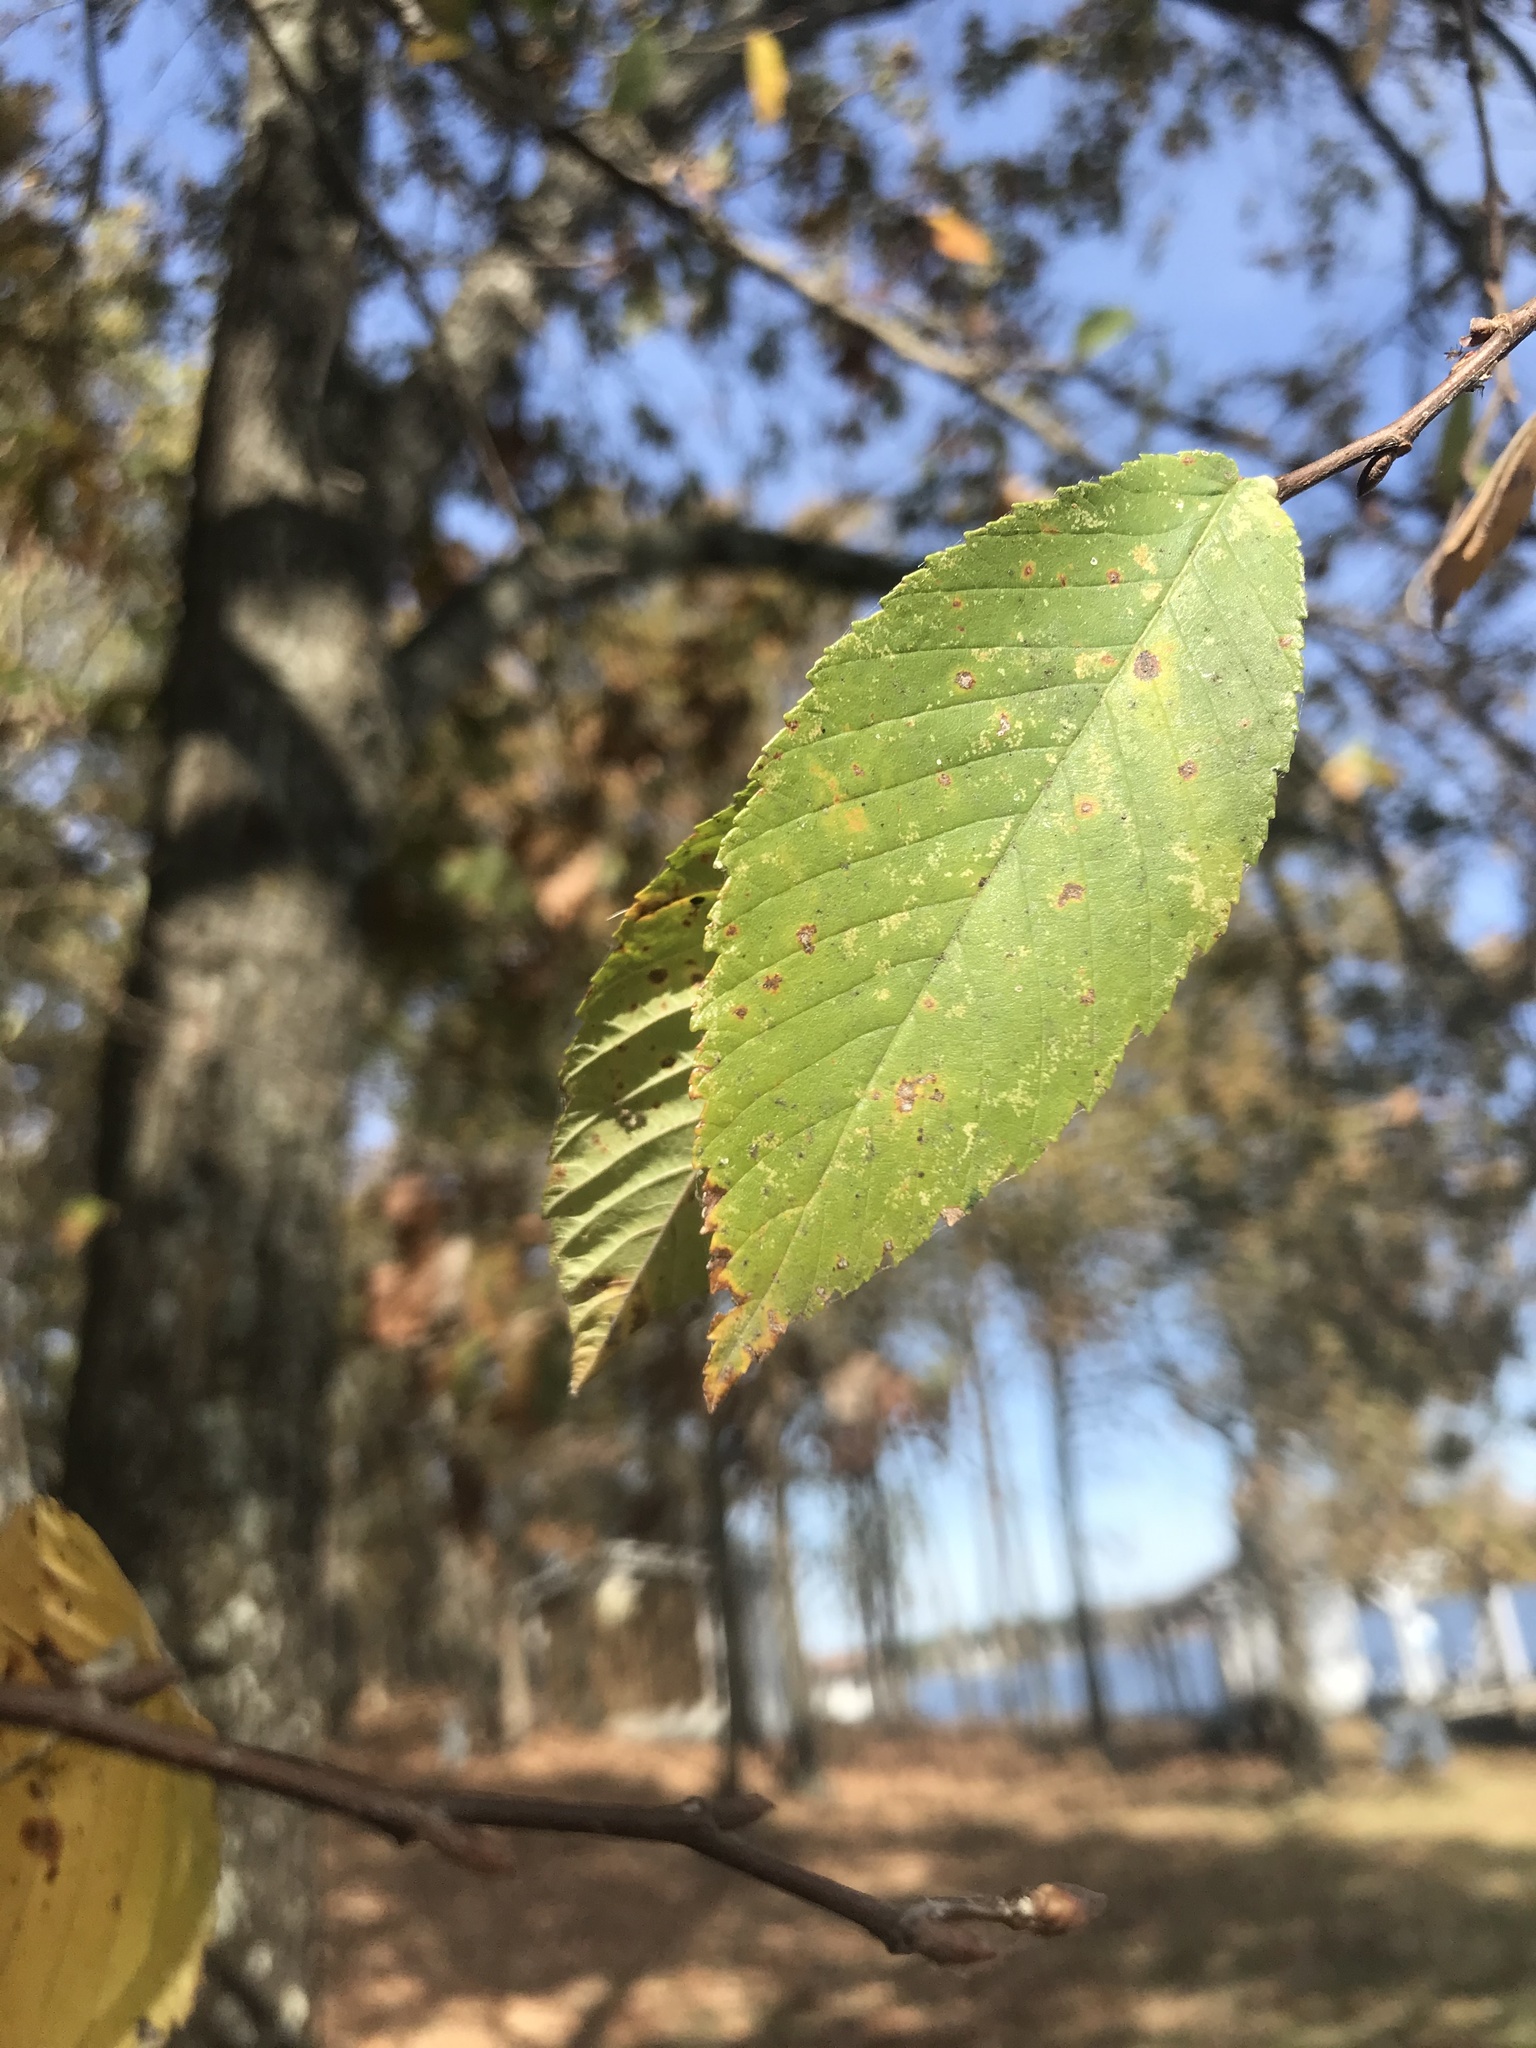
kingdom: Plantae
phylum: Tracheophyta
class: Magnoliopsida
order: Rosales
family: Ulmaceae
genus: Ulmus
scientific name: Ulmus alata
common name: Winged elm
